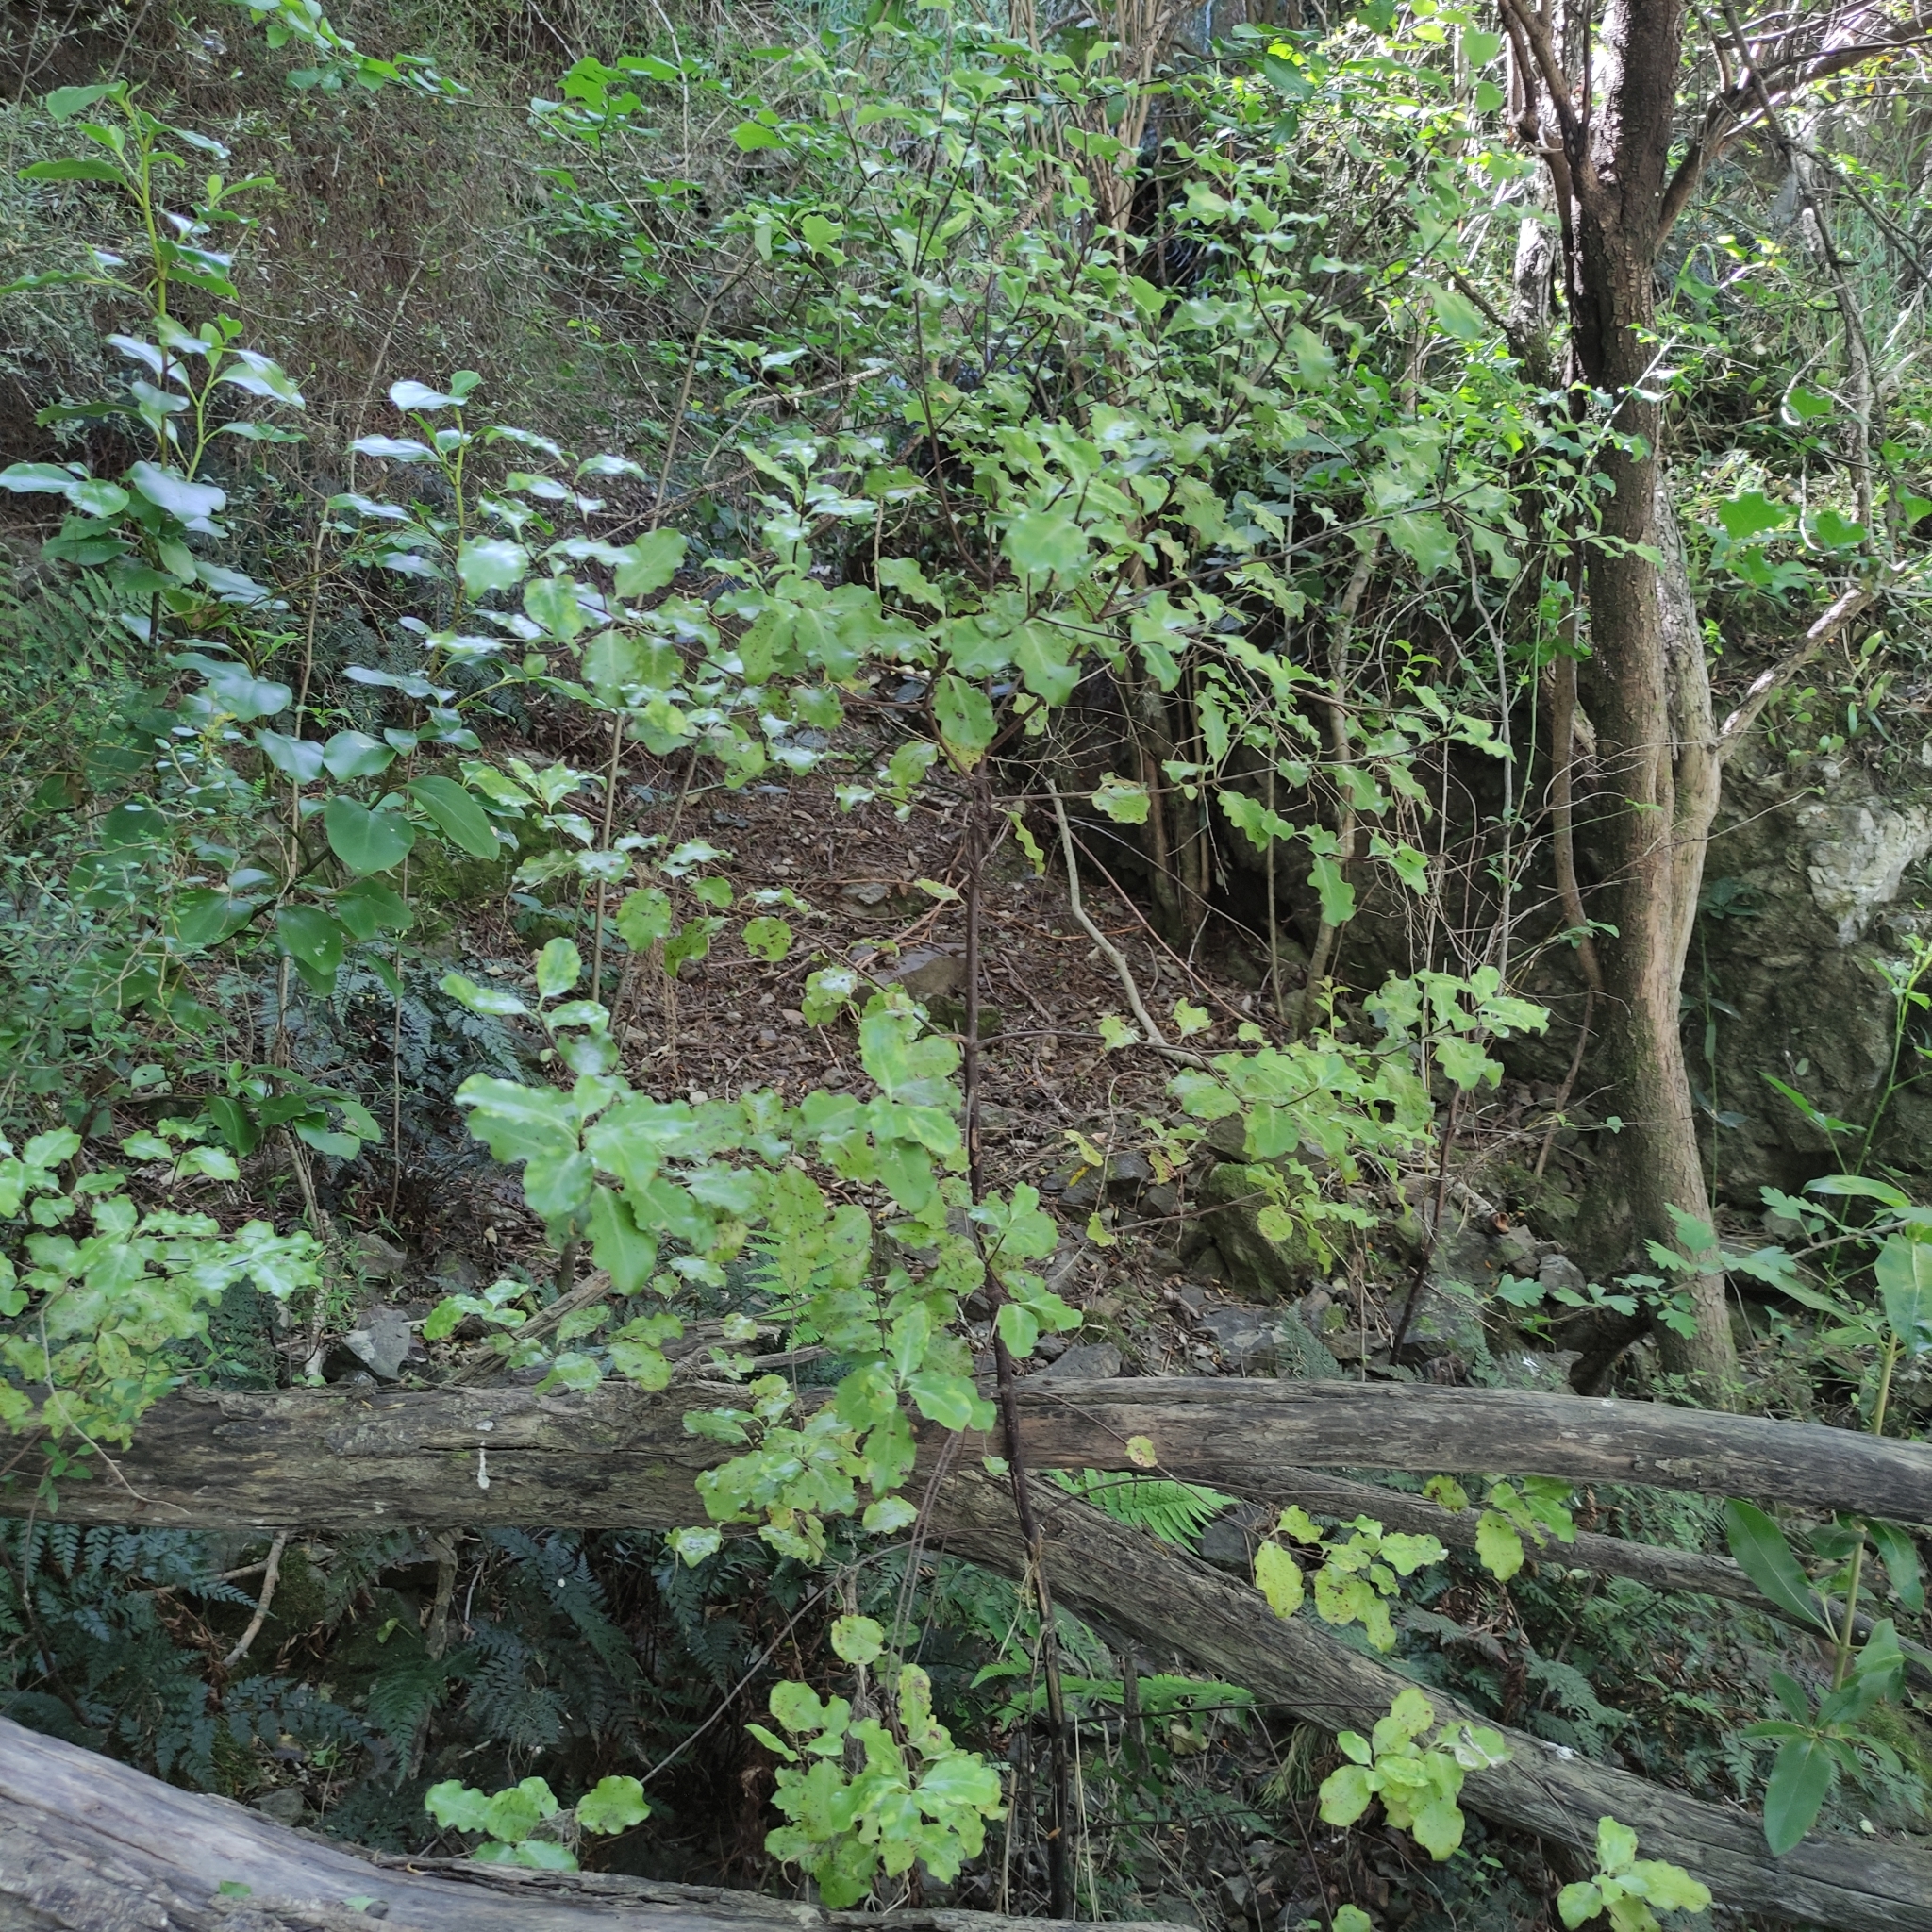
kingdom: Plantae
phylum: Tracheophyta
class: Magnoliopsida
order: Apiales
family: Pittosporaceae
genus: Pittosporum
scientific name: Pittosporum tenuifolium
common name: Kohuhu
